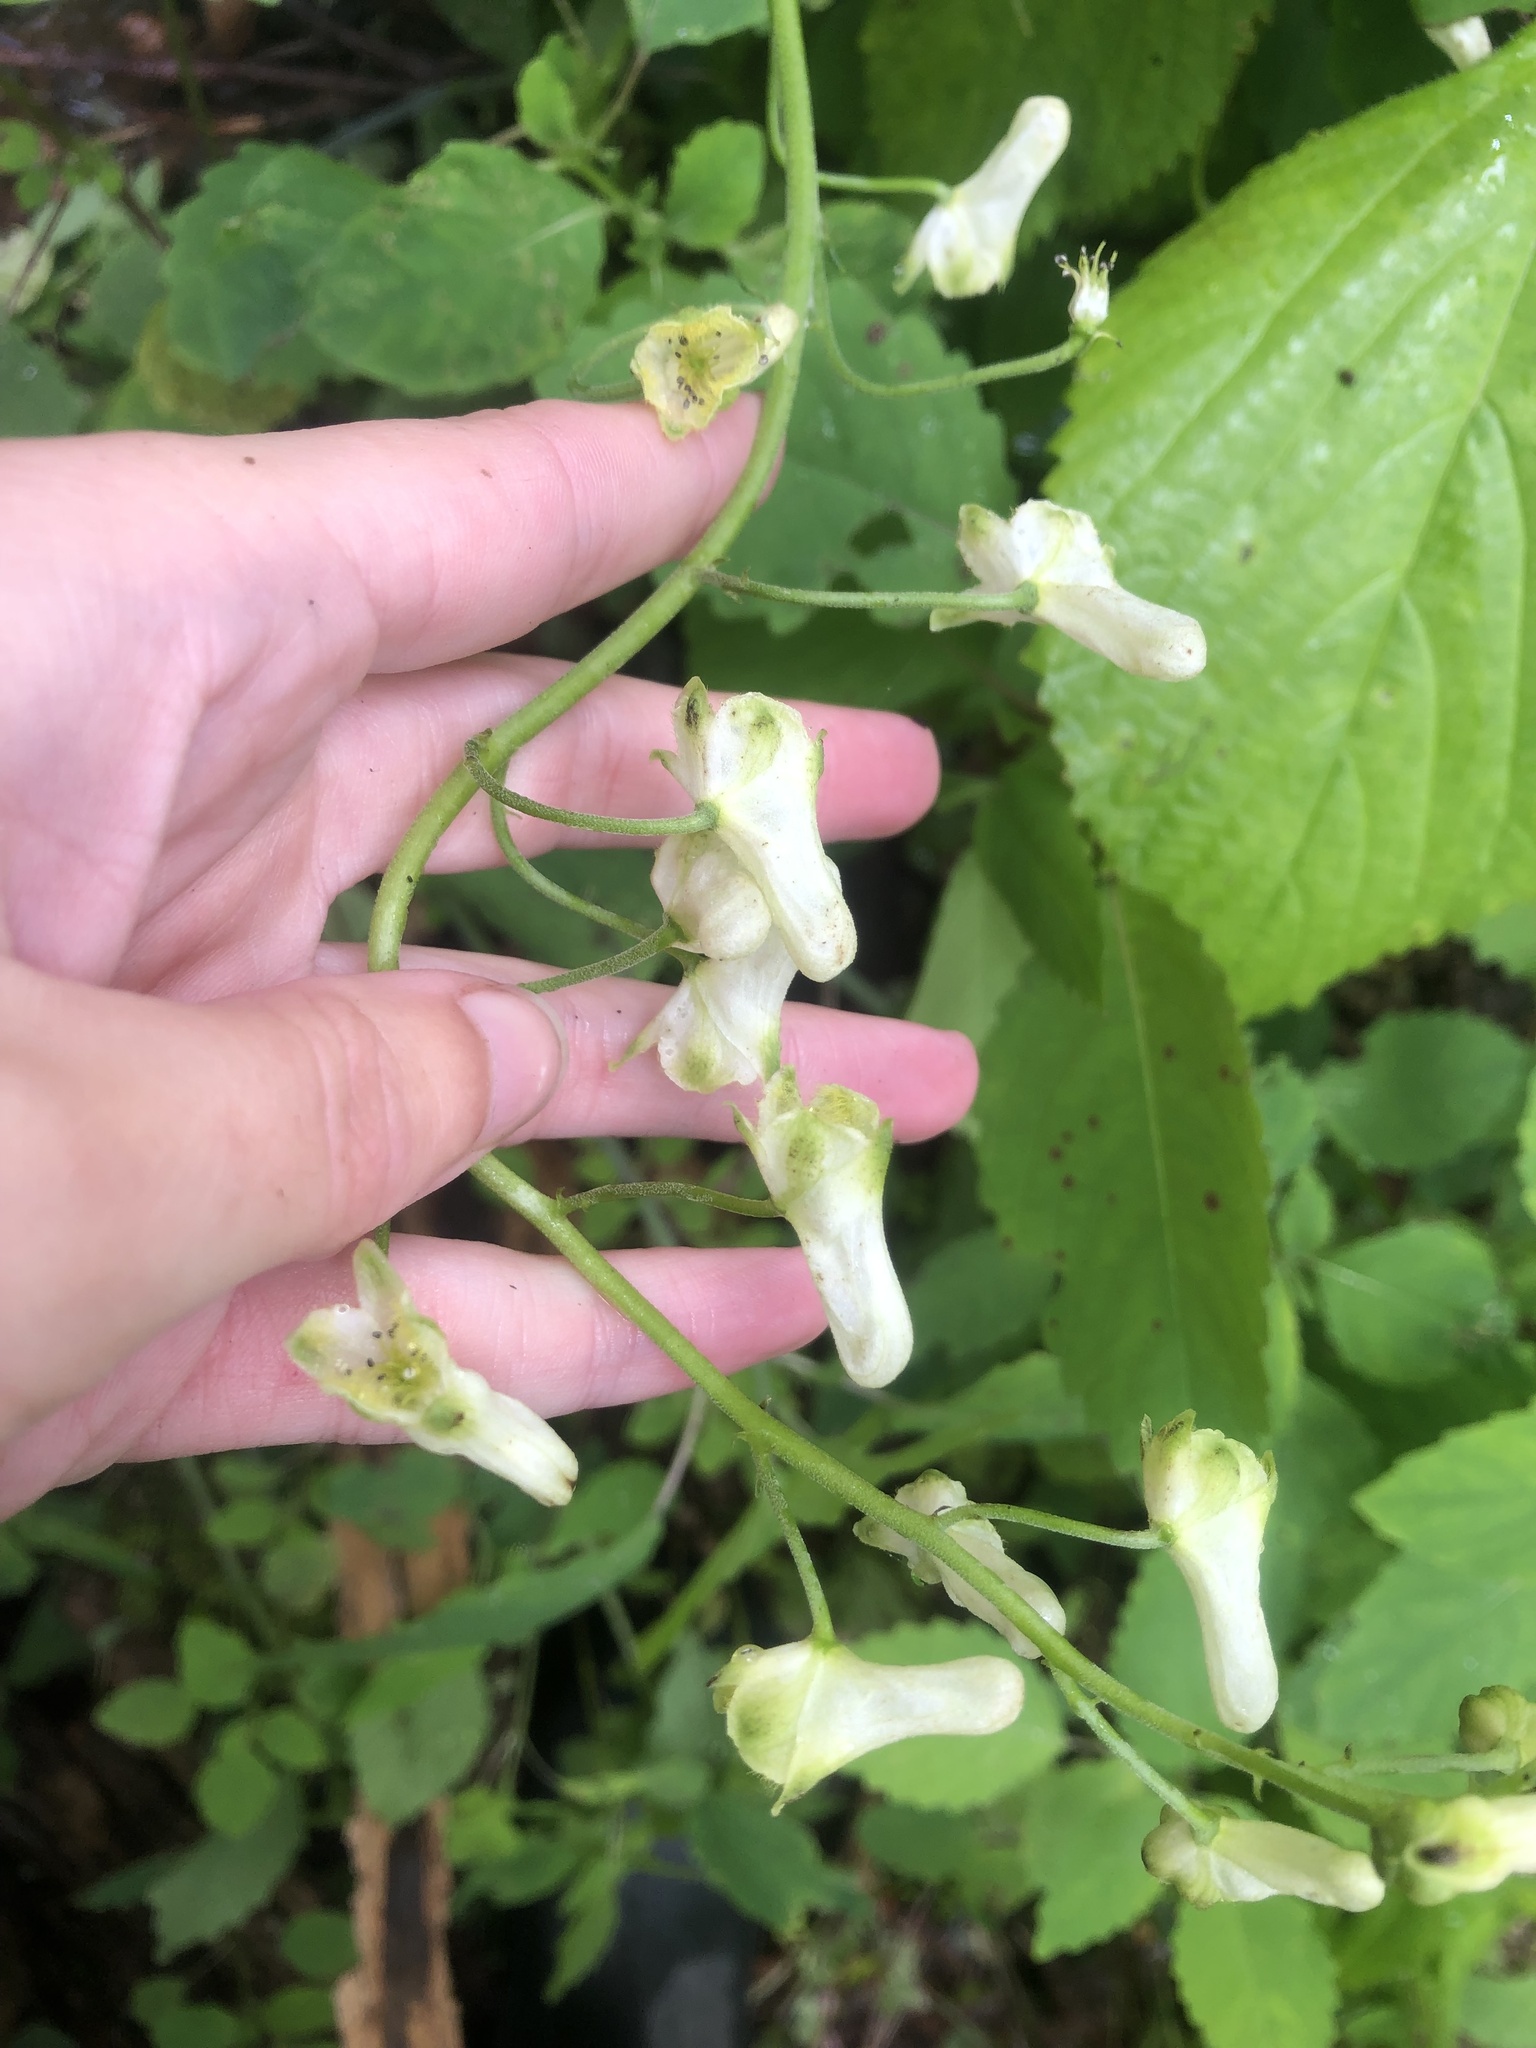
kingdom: Plantae
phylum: Tracheophyta
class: Magnoliopsida
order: Ranunculales
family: Ranunculaceae
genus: Aconitum
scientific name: Aconitum reclinatum
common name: Trailing wolfsbane
